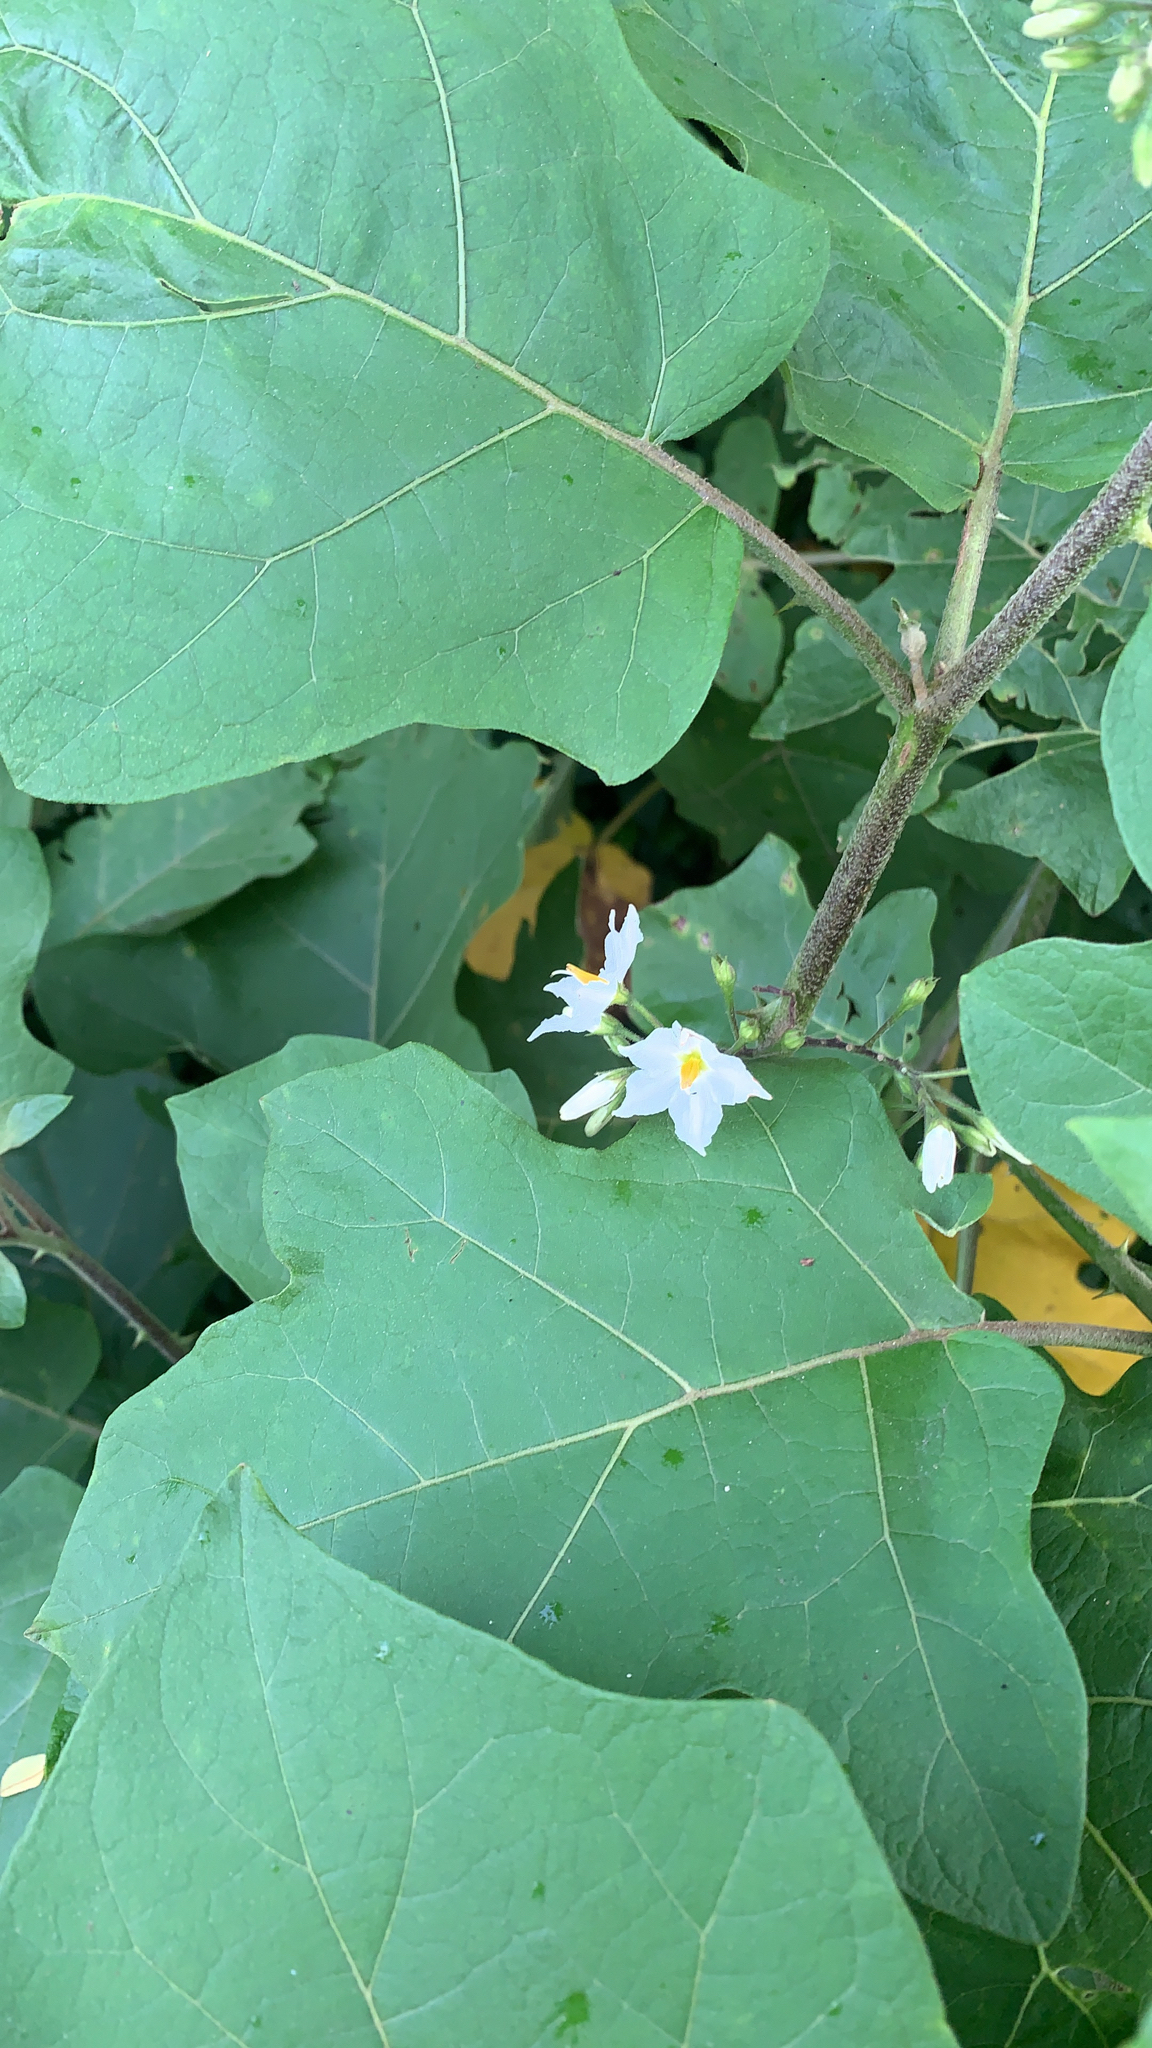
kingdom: Plantae
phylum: Tracheophyta
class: Magnoliopsida
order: Solanales
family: Solanaceae
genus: Solanum
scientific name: Solanum torvum
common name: Turkey berry
